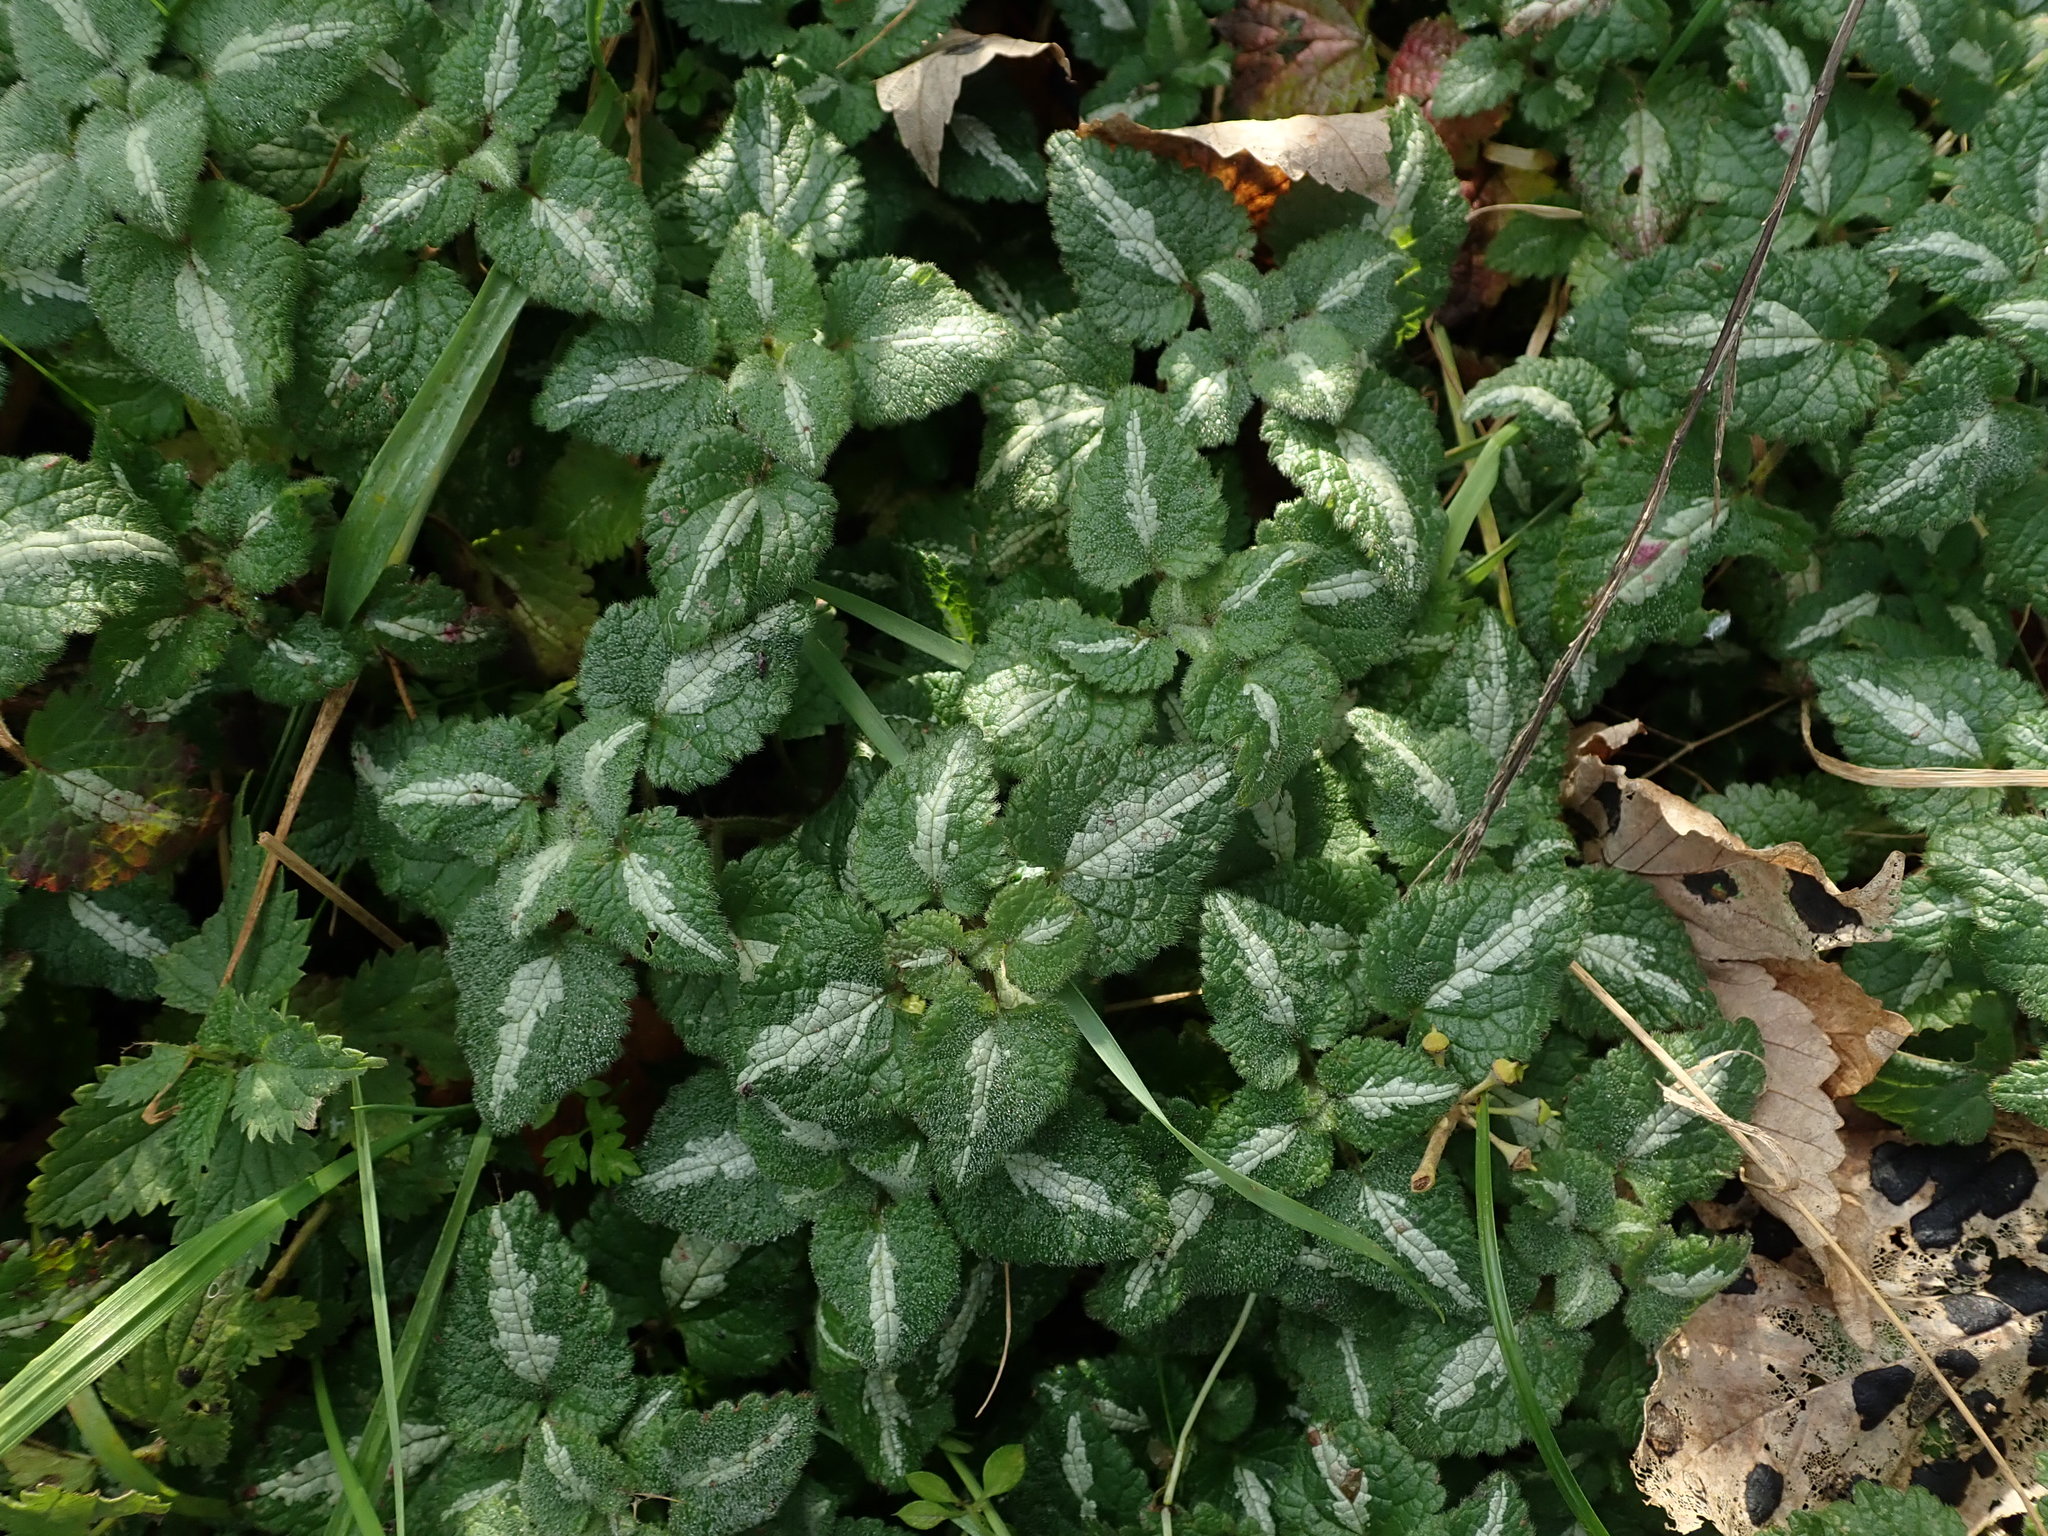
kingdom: Plantae
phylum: Tracheophyta
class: Magnoliopsida
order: Lamiales
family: Lamiaceae
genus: Lamium
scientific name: Lamium maculatum
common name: Spotted dead-nettle
